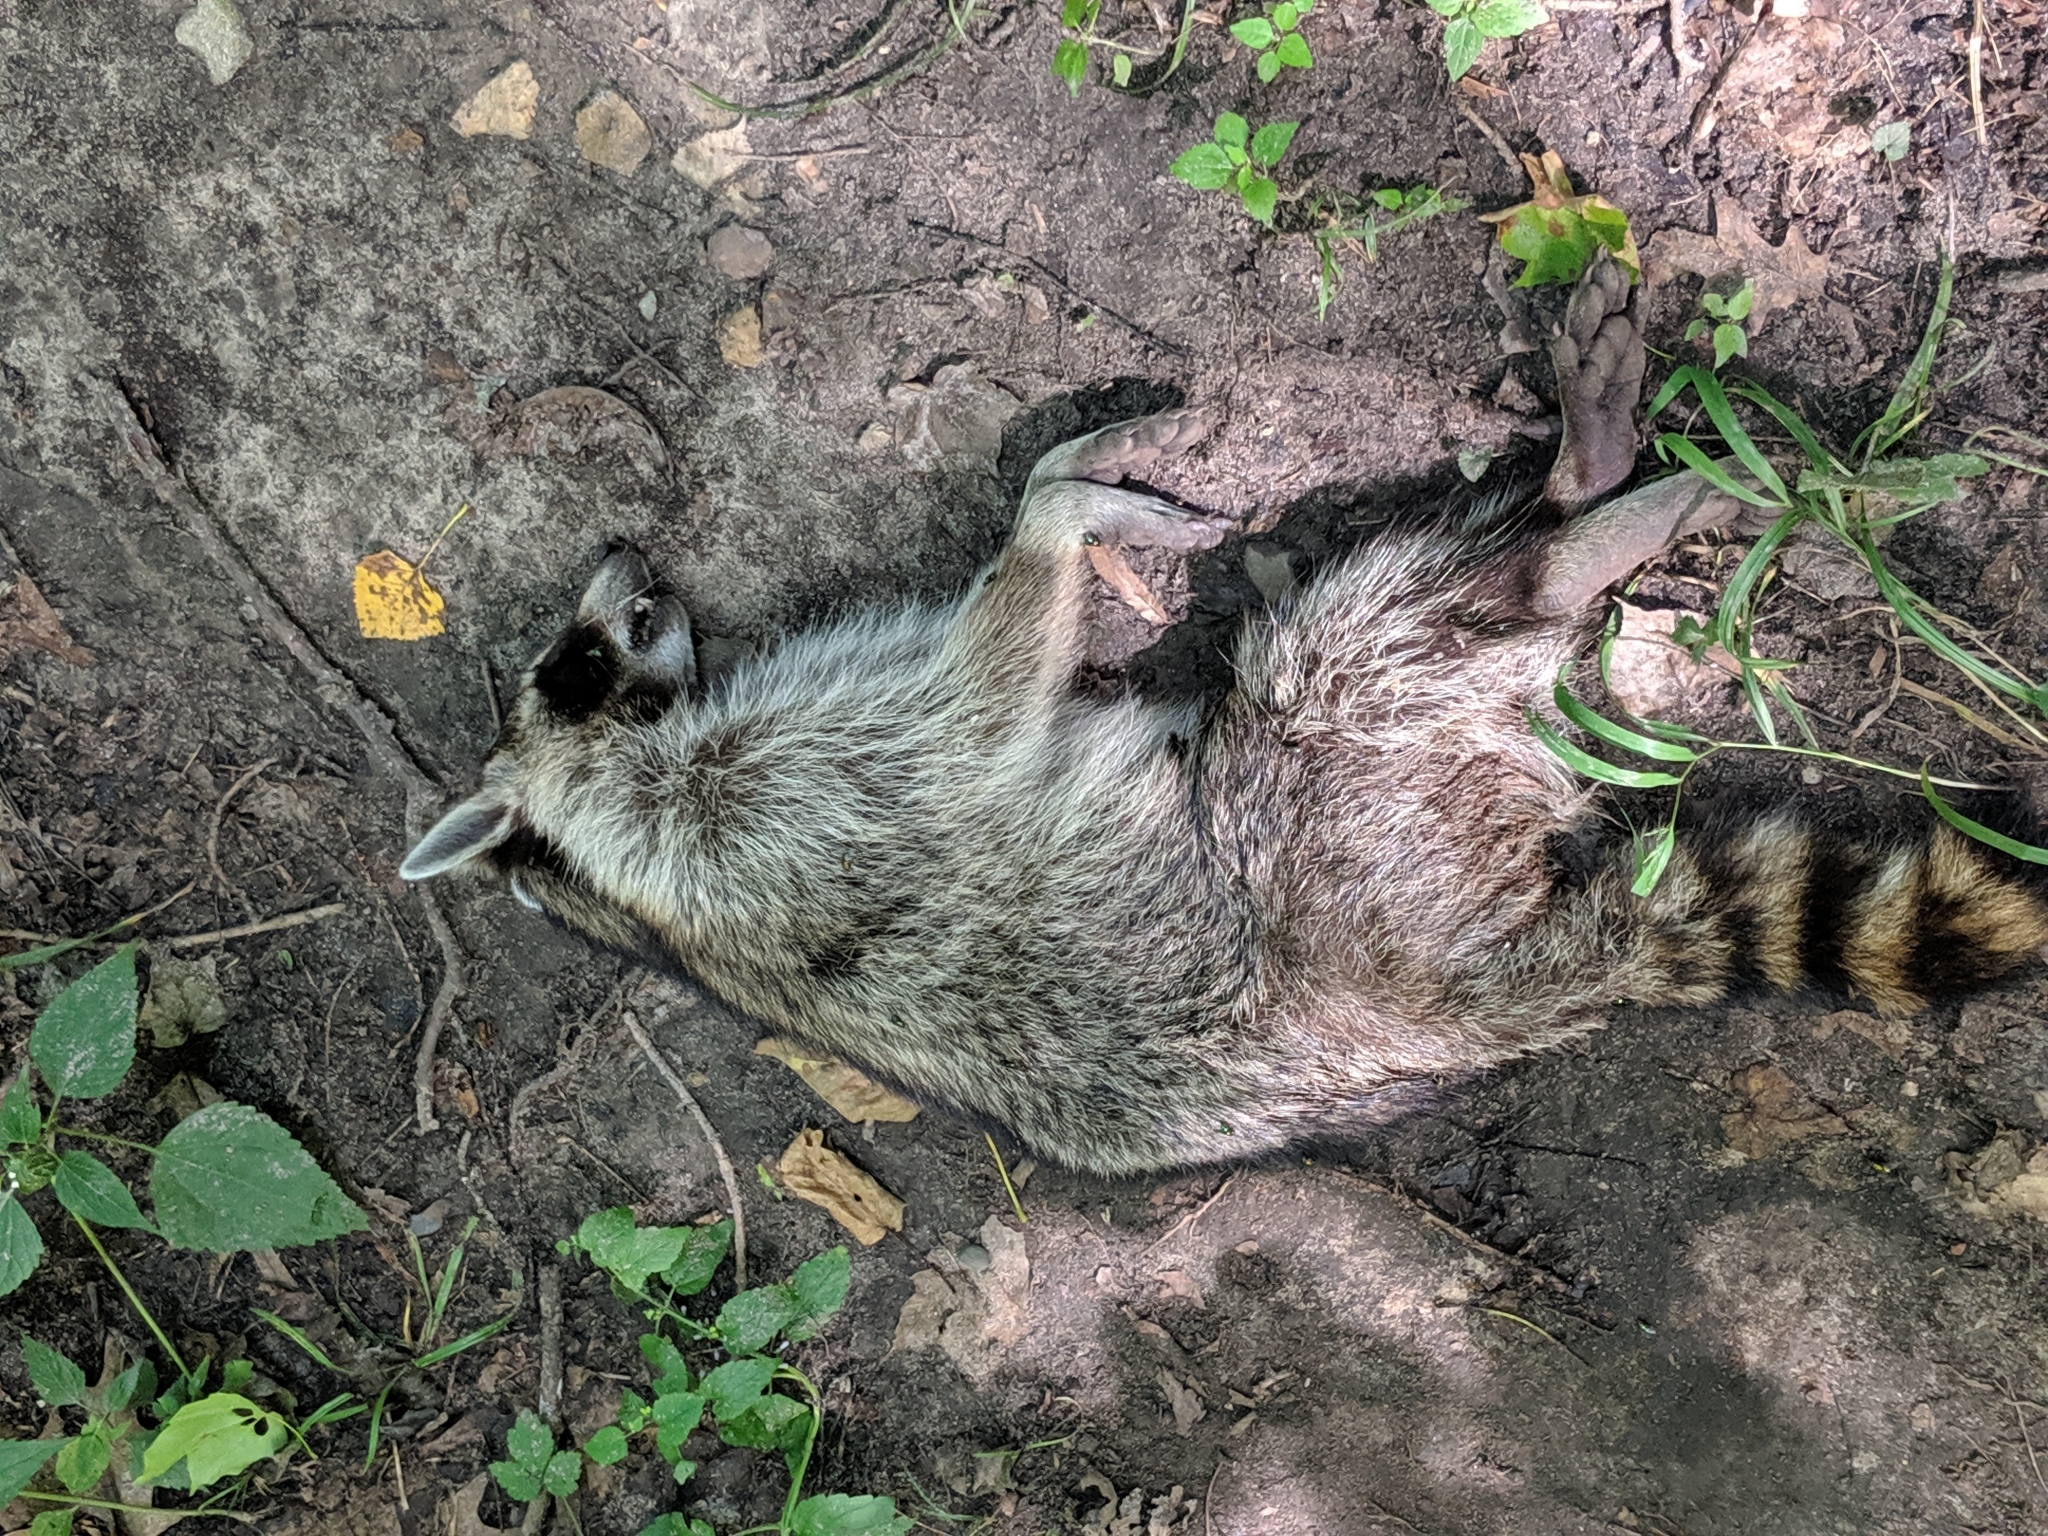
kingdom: Animalia
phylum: Chordata
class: Mammalia
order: Carnivora
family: Procyonidae
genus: Procyon
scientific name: Procyon lotor
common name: Raccoon
